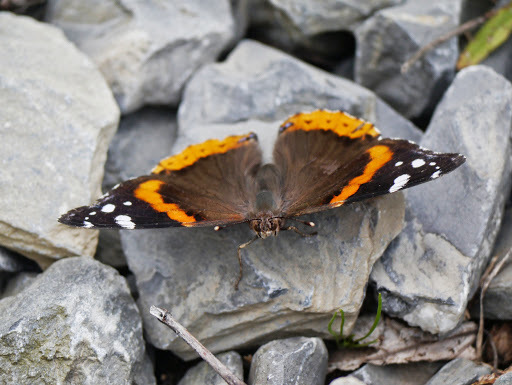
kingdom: Animalia
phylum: Arthropoda
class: Insecta
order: Lepidoptera
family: Nymphalidae
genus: Vanessa
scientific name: Vanessa atalanta
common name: Red admiral
